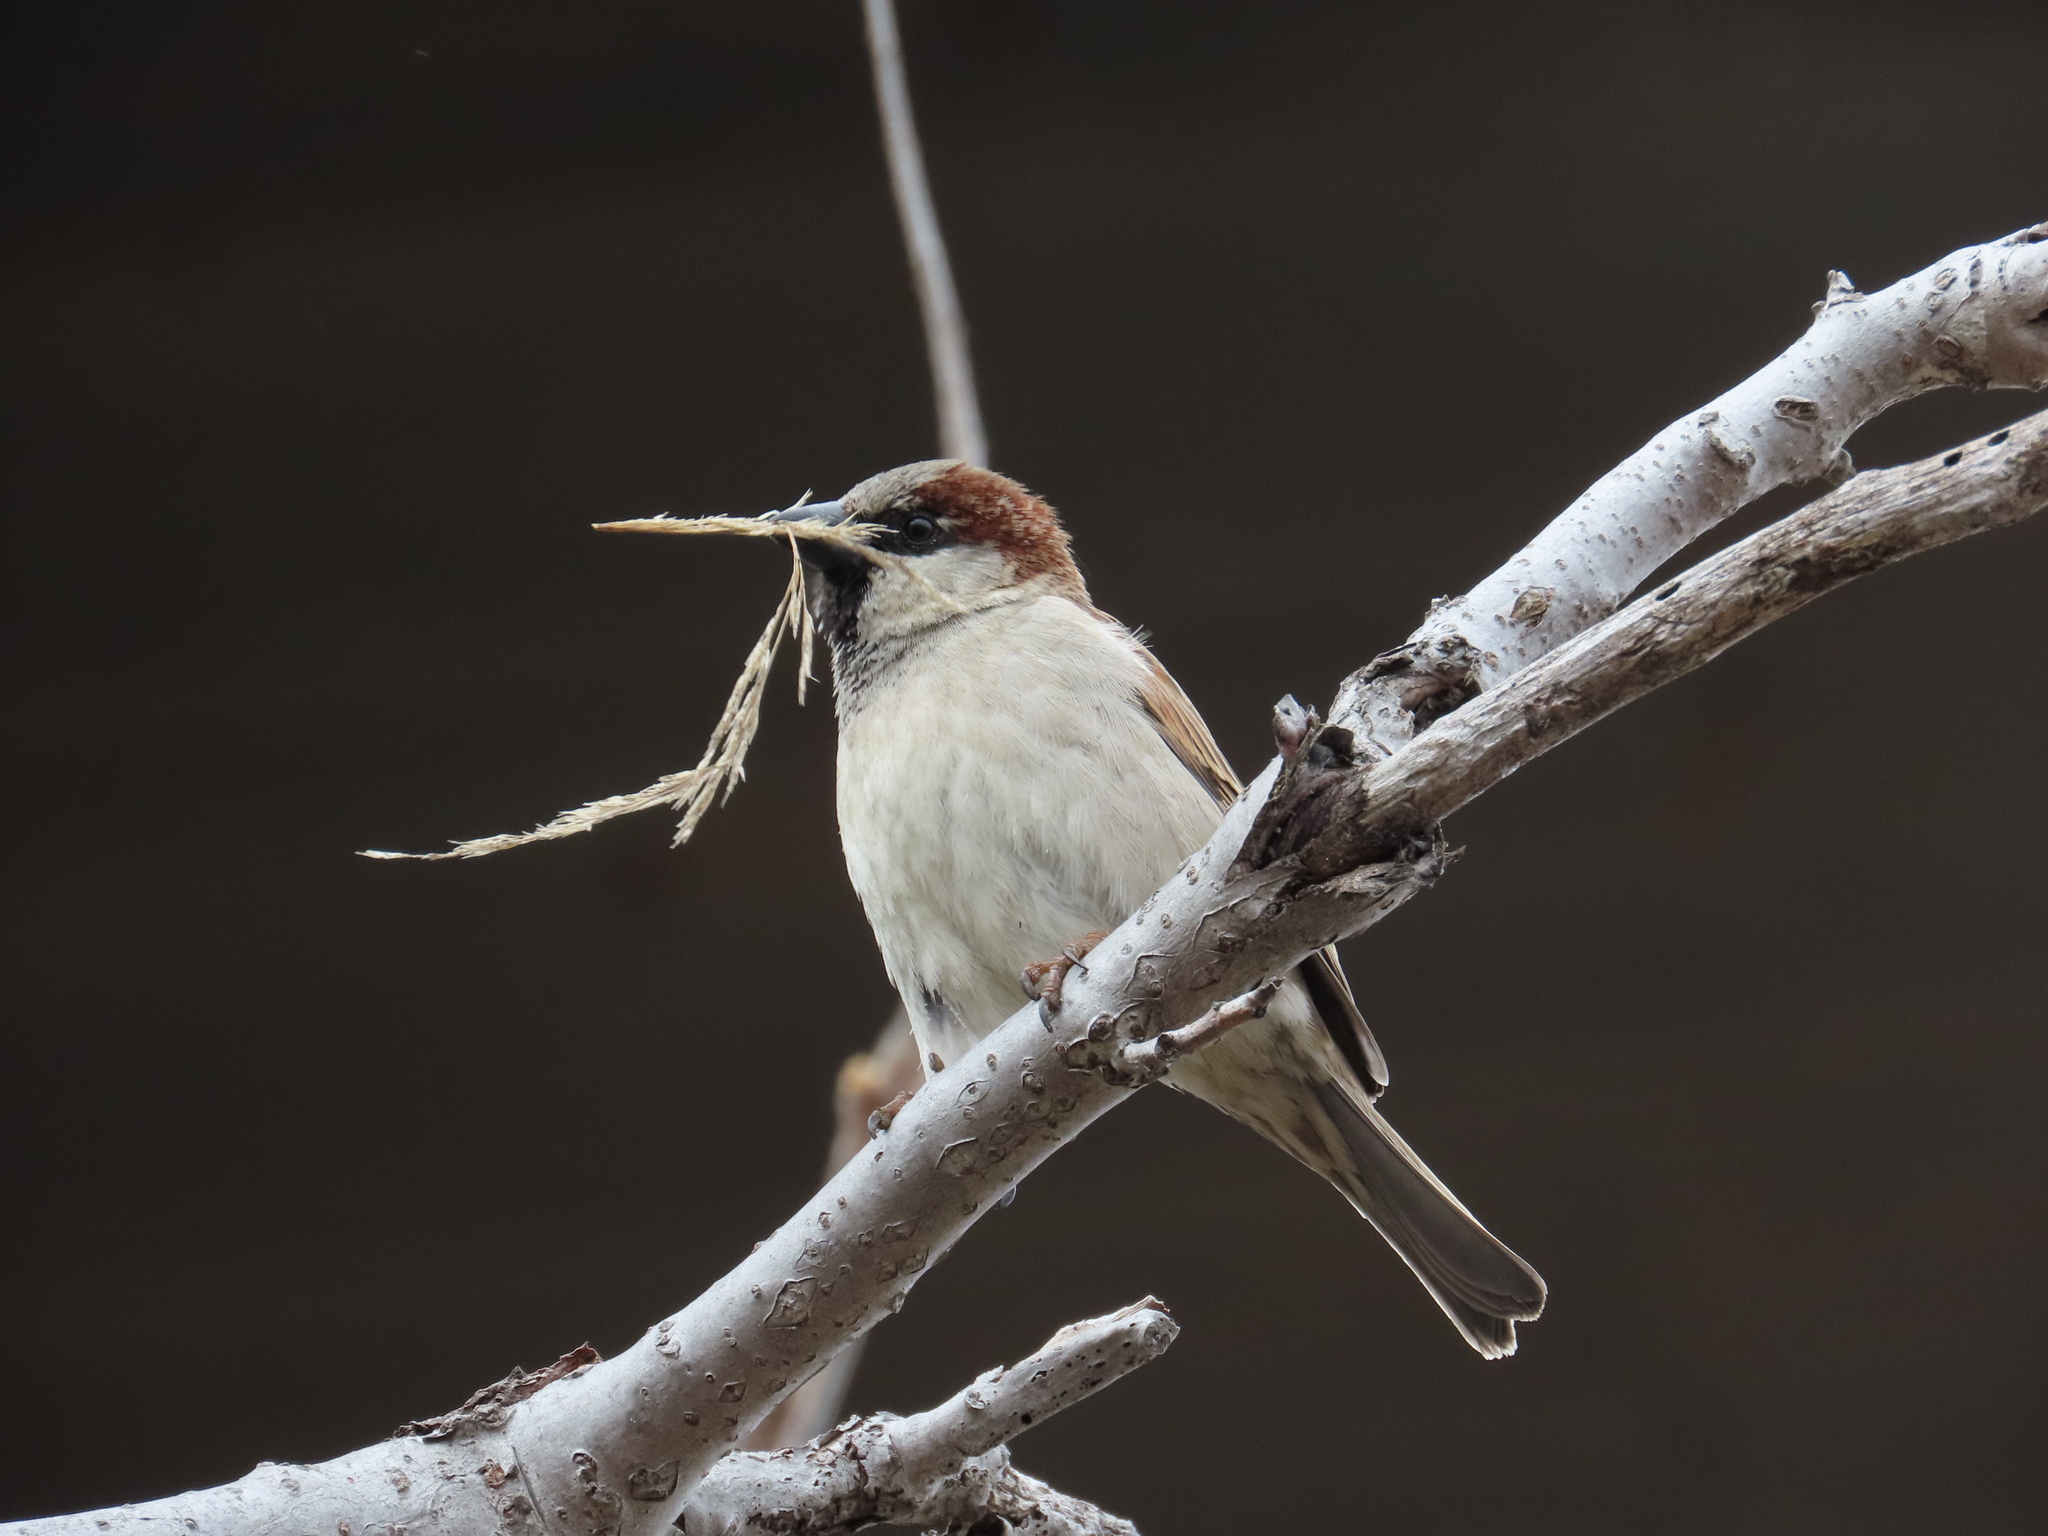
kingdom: Animalia
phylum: Chordata
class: Aves
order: Passeriformes
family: Passeridae
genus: Passer
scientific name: Passer domesticus
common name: House sparrow
